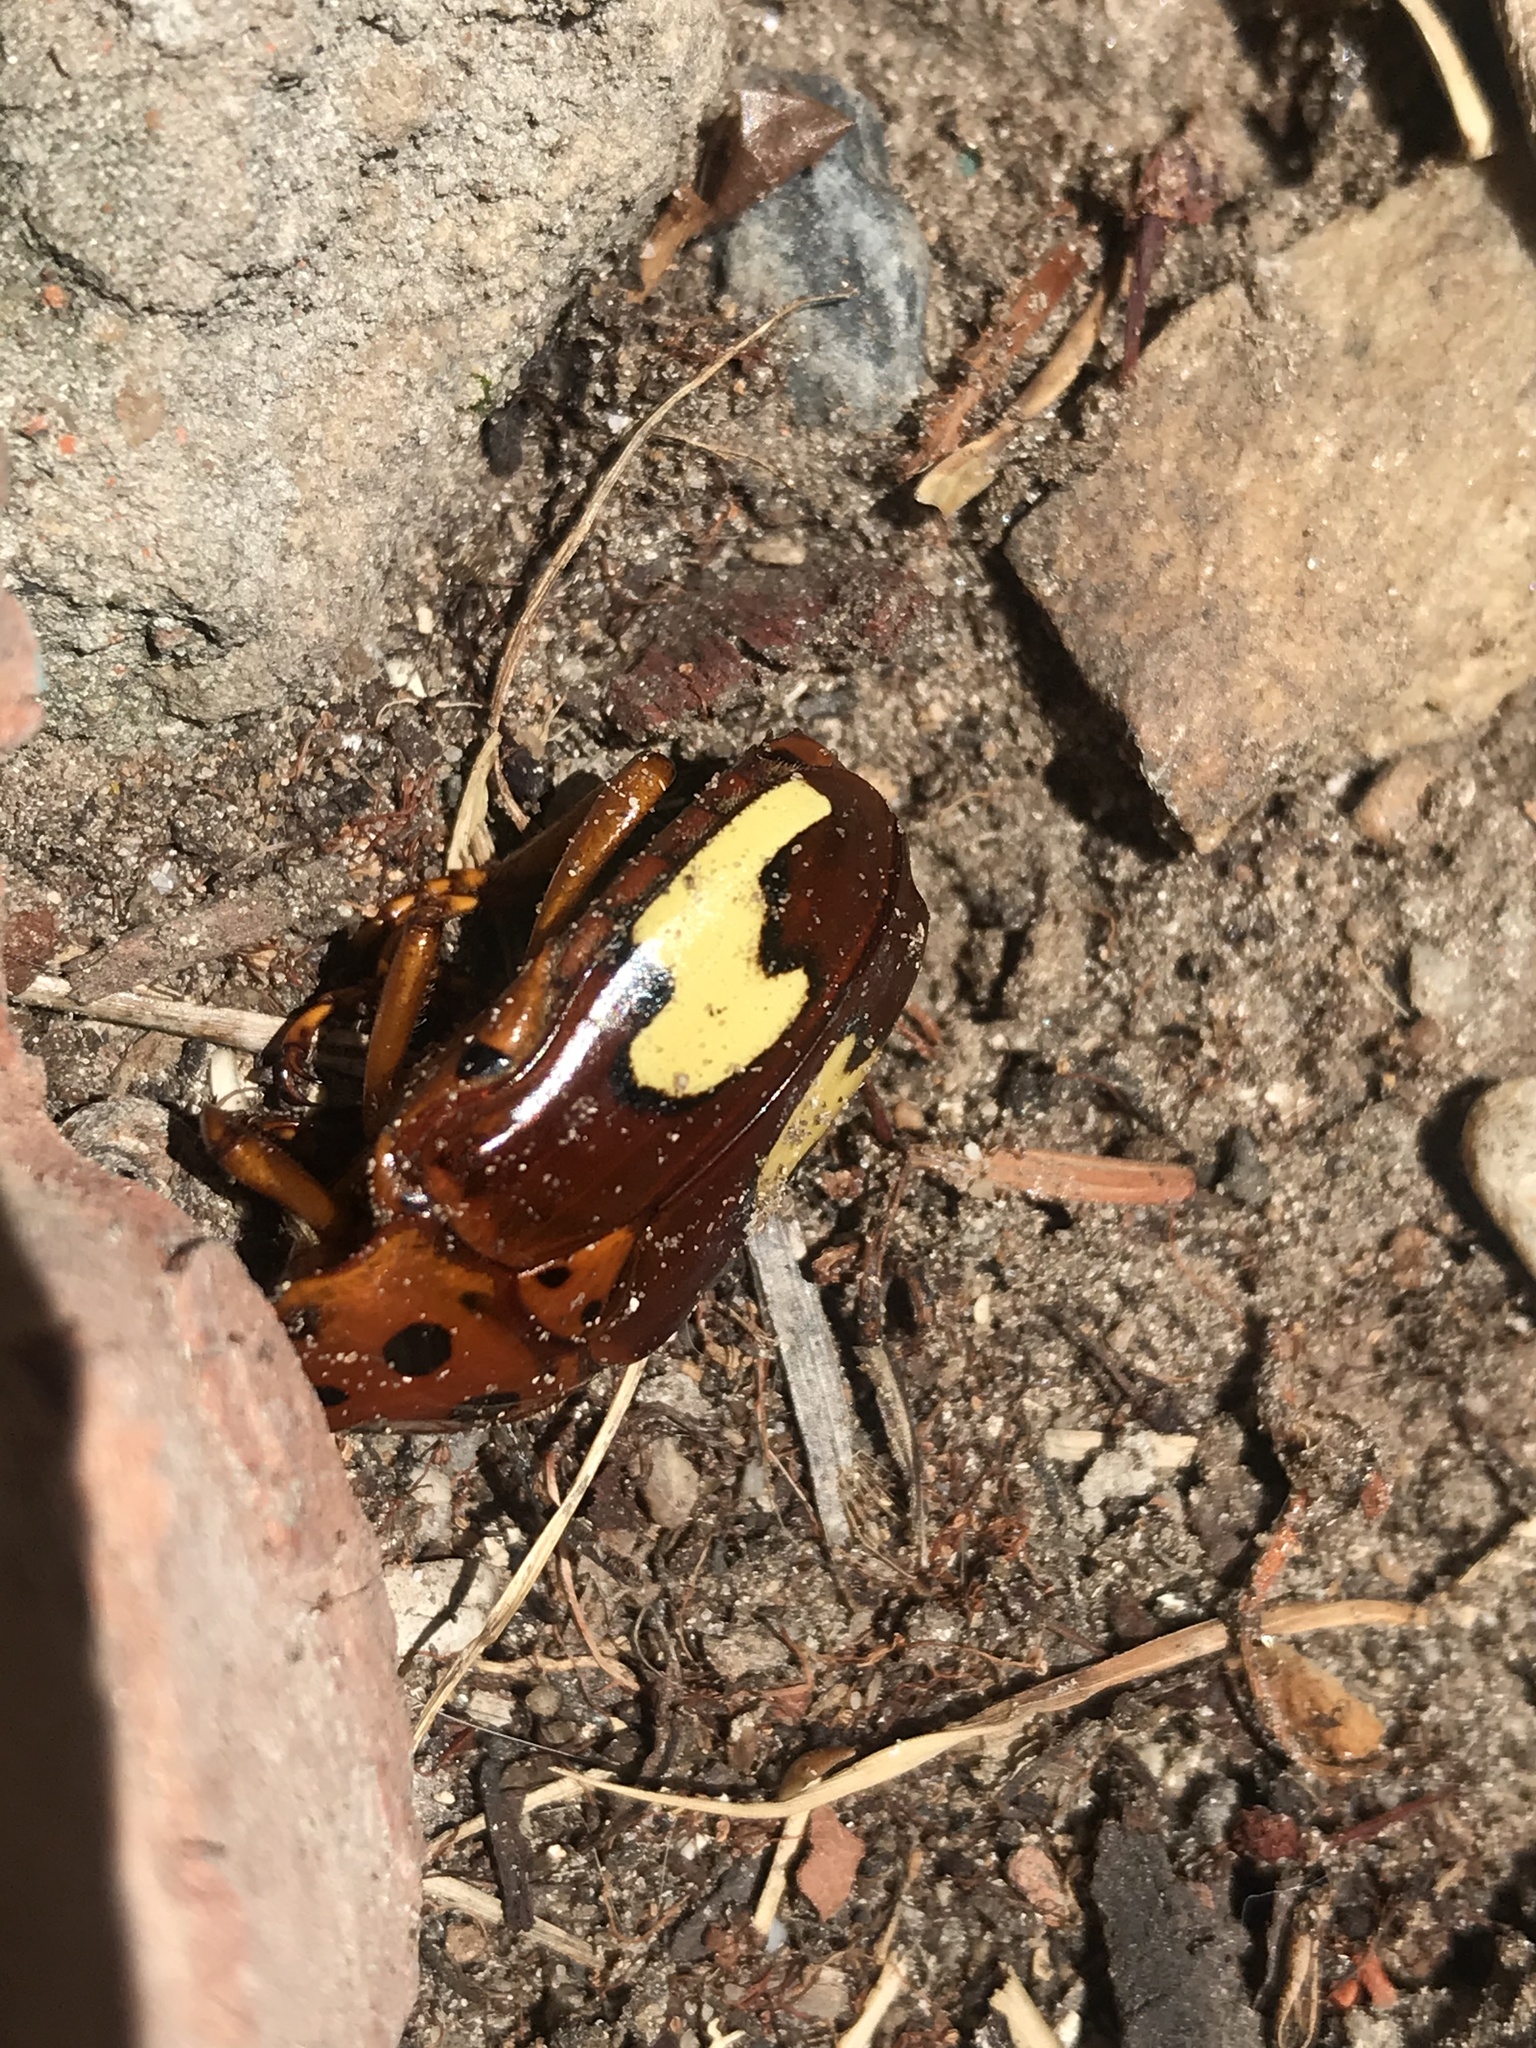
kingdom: Animalia
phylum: Arthropoda
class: Insecta
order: Coleoptera
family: Scarabaeidae
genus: Anisorrhina
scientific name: Anisorrhina flavomaculata
